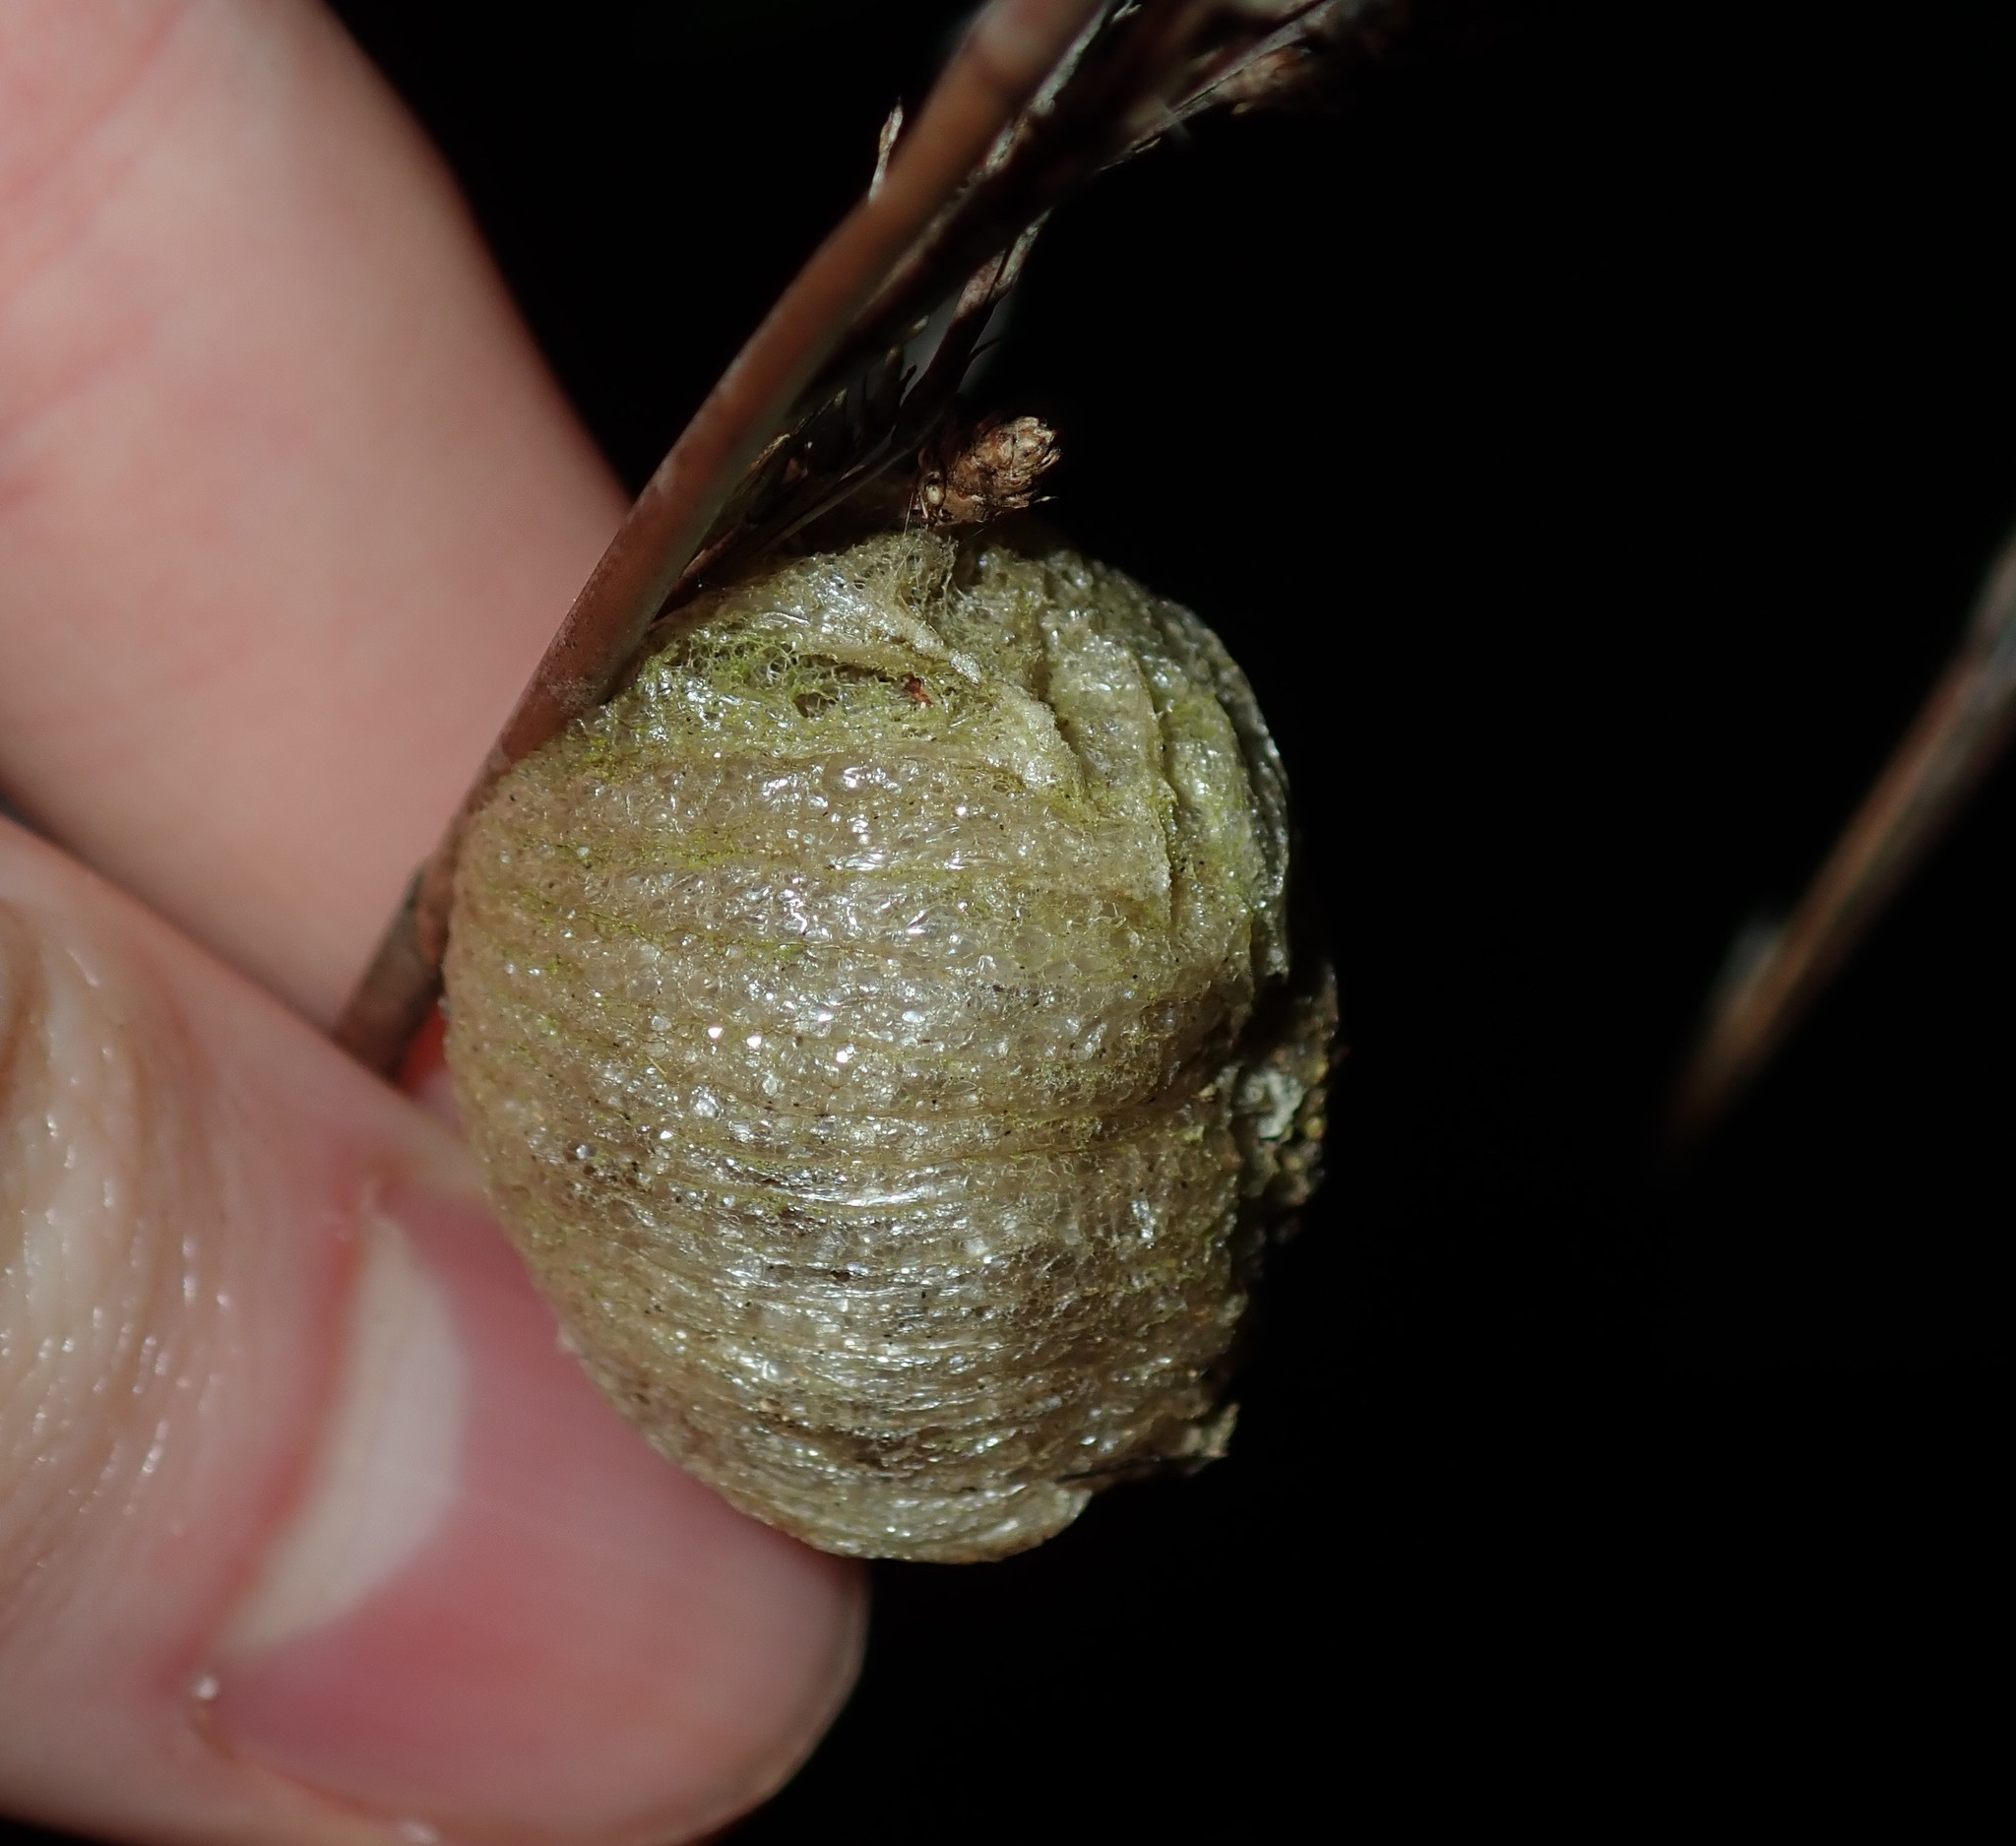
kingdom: Animalia
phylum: Arthropoda
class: Insecta
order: Mantodea
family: Mantidae
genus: Archimantis
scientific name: Archimantis latistyla
